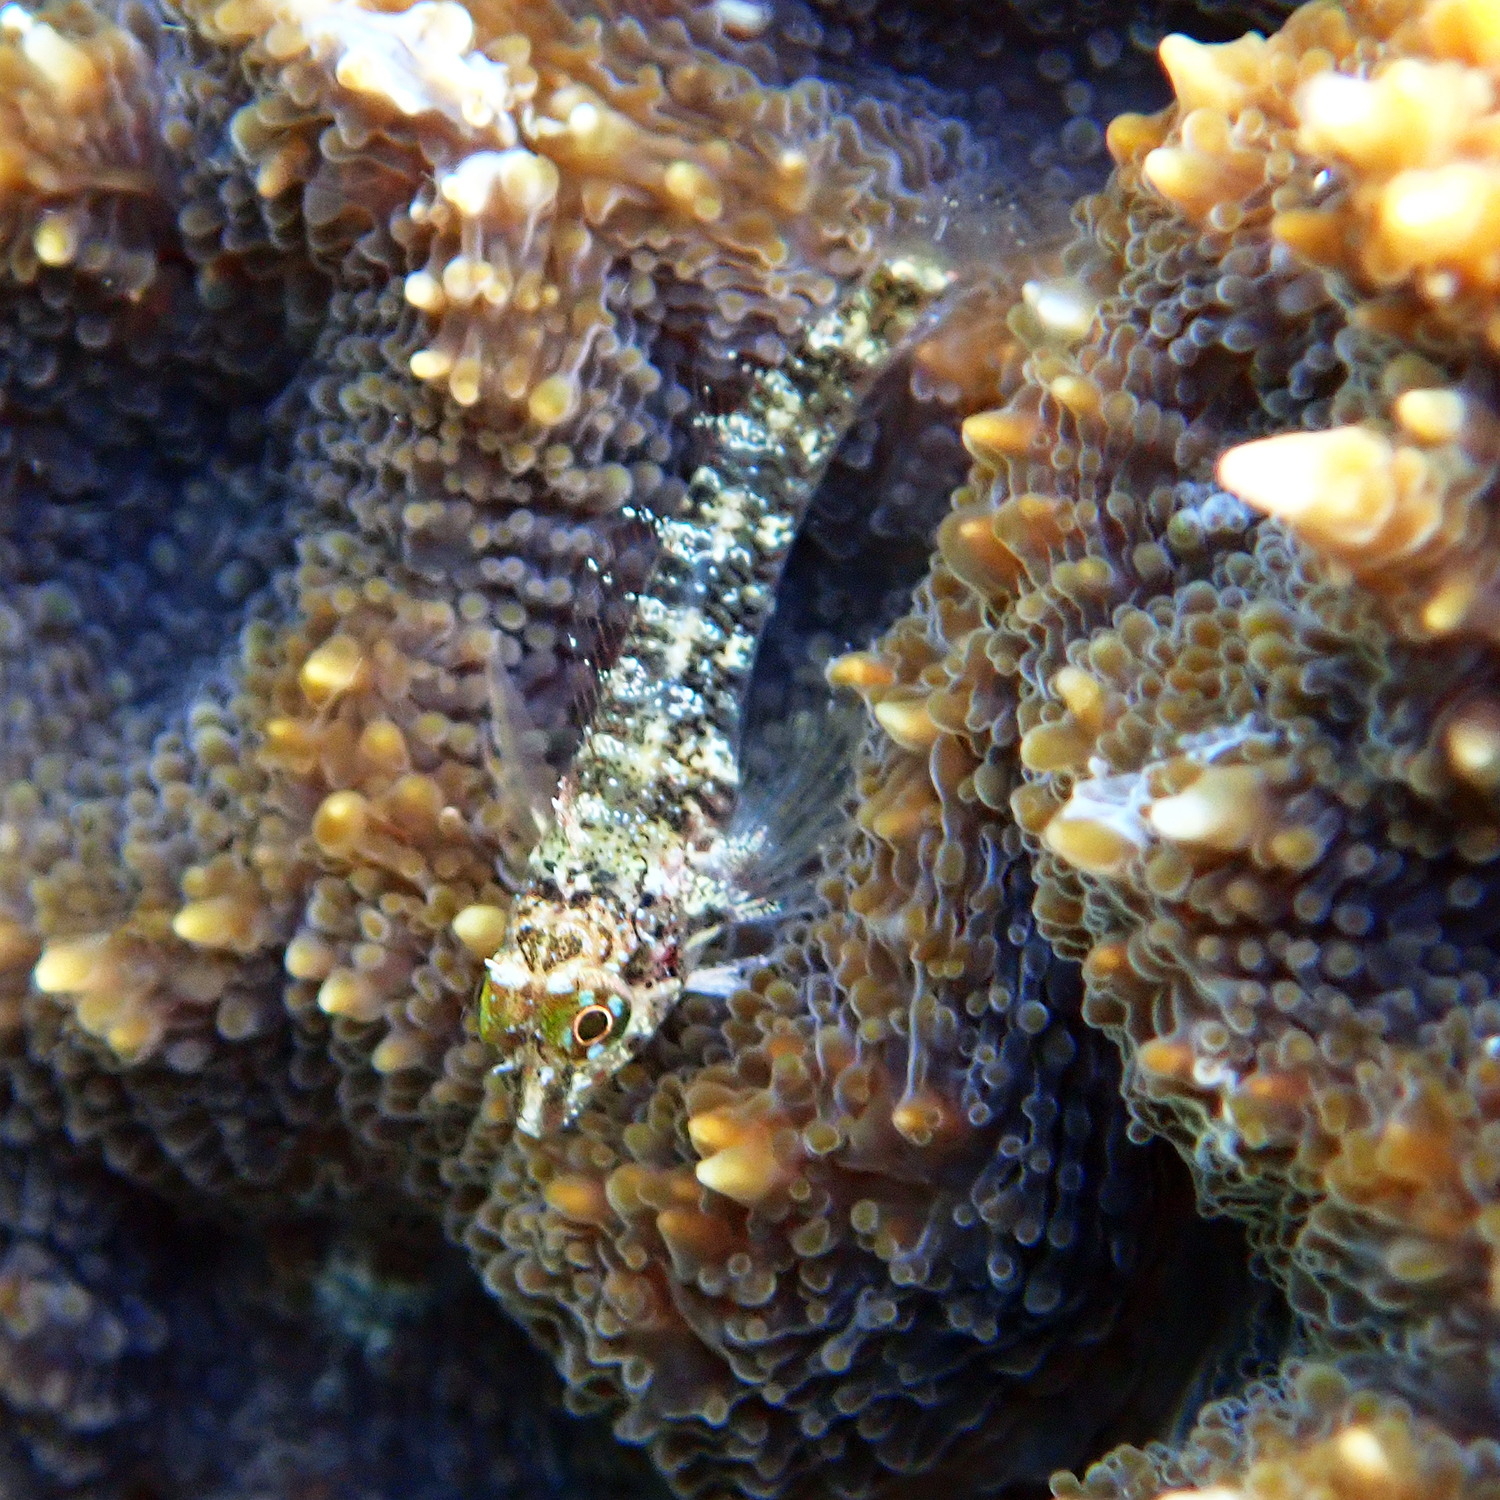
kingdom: Animalia
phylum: Chordata
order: Perciformes
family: Tripterygiidae
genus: Enneapterygius
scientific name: Enneapterygius rufopileus
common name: Lord howe black-head triplefin
